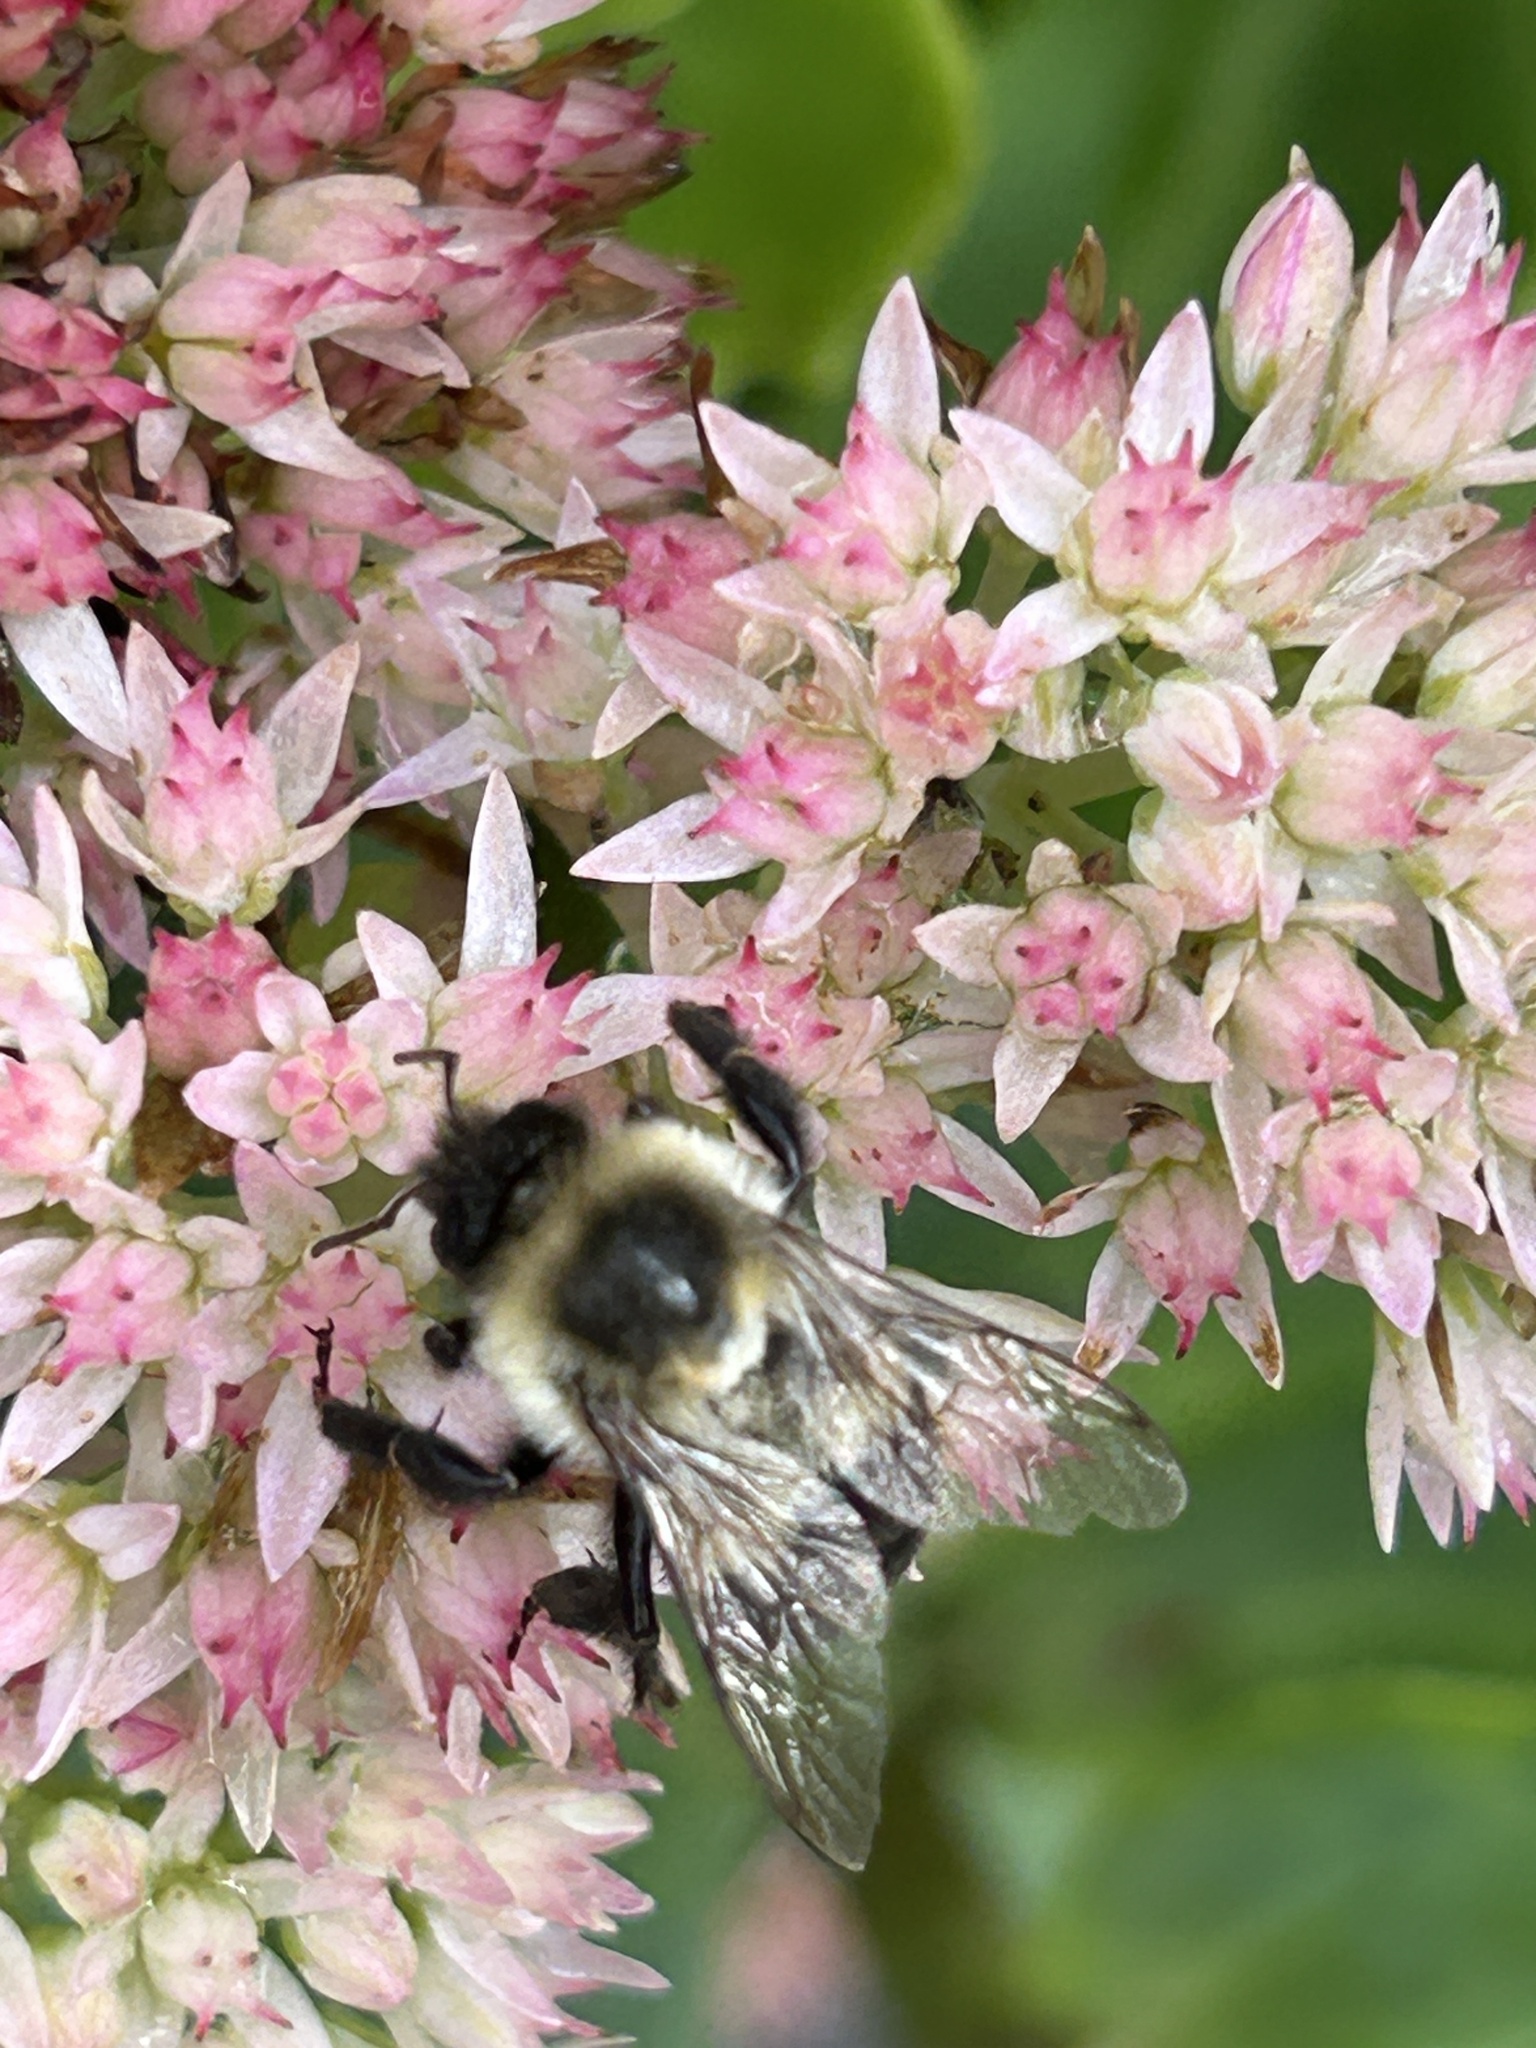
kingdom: Animalia
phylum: Arthropoda
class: Insecta
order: Hymenoptera
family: Apidae
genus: Bombus
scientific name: Bombus impatiens
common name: Common eastern bumble bee
